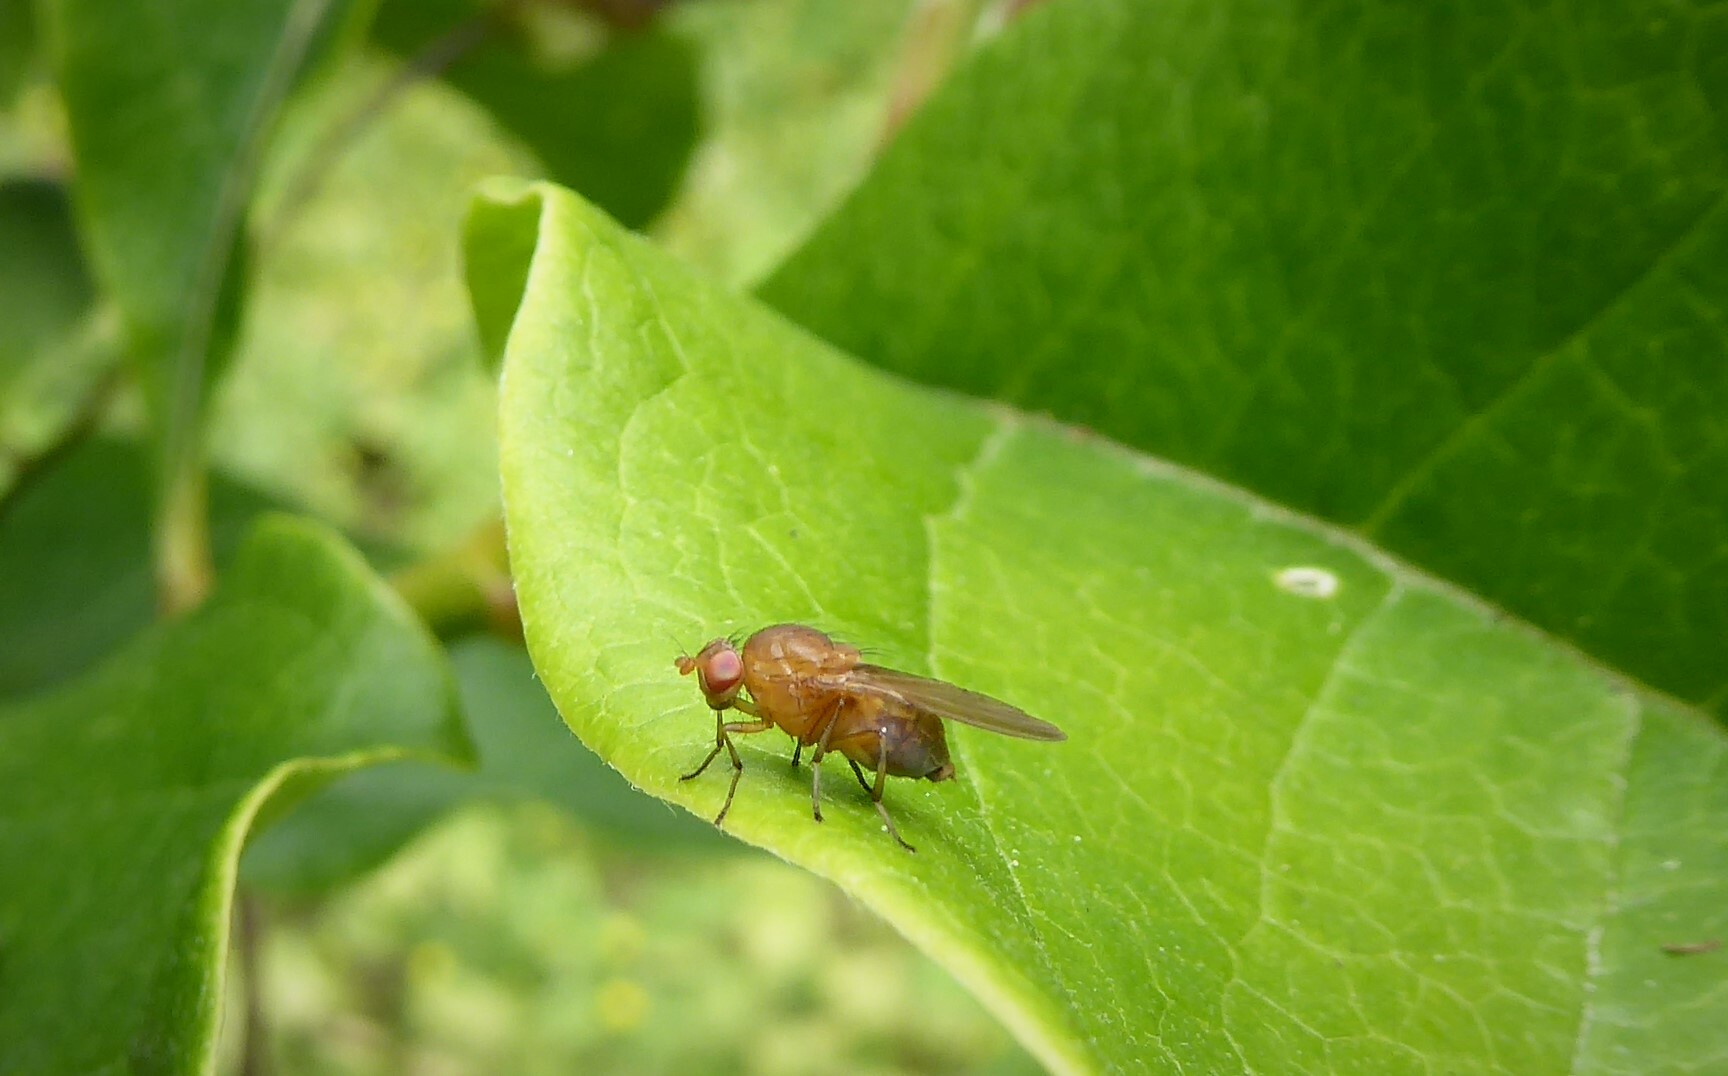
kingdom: Animalia
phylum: Arthropoda
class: Insecta
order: Diptera
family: Lauxaniidae
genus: Sapromyza
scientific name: Sapromyza simillima
